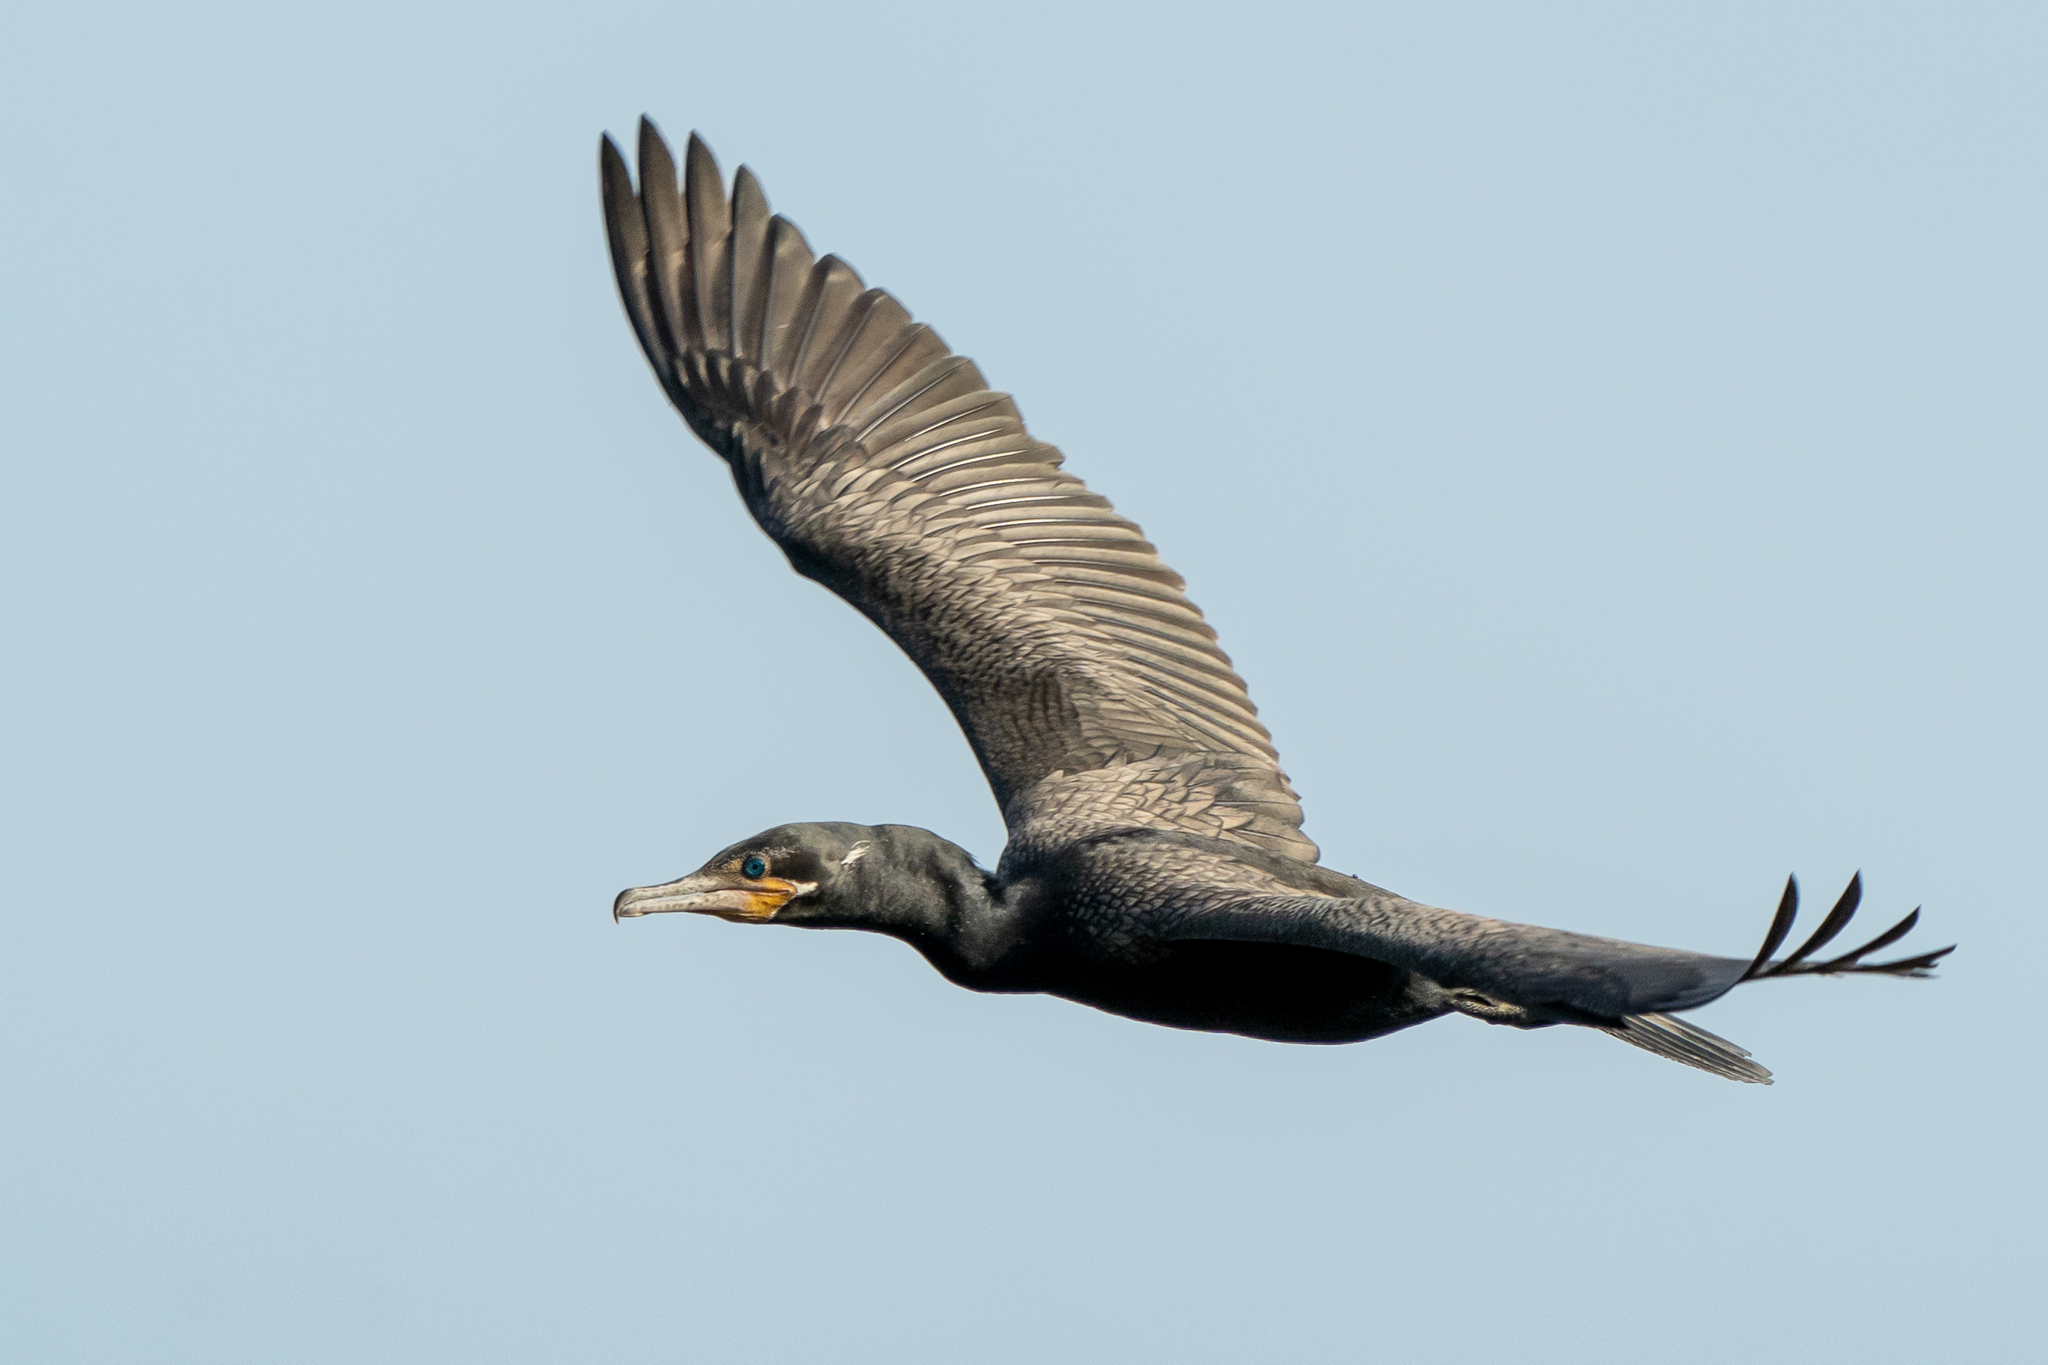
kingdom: Animalia
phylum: Chordata
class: Aves
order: Suliformes
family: Phalacrocoracidae
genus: Phalacrocorax
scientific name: Phalacrocorax brasilianus
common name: Neotropic cormorant
